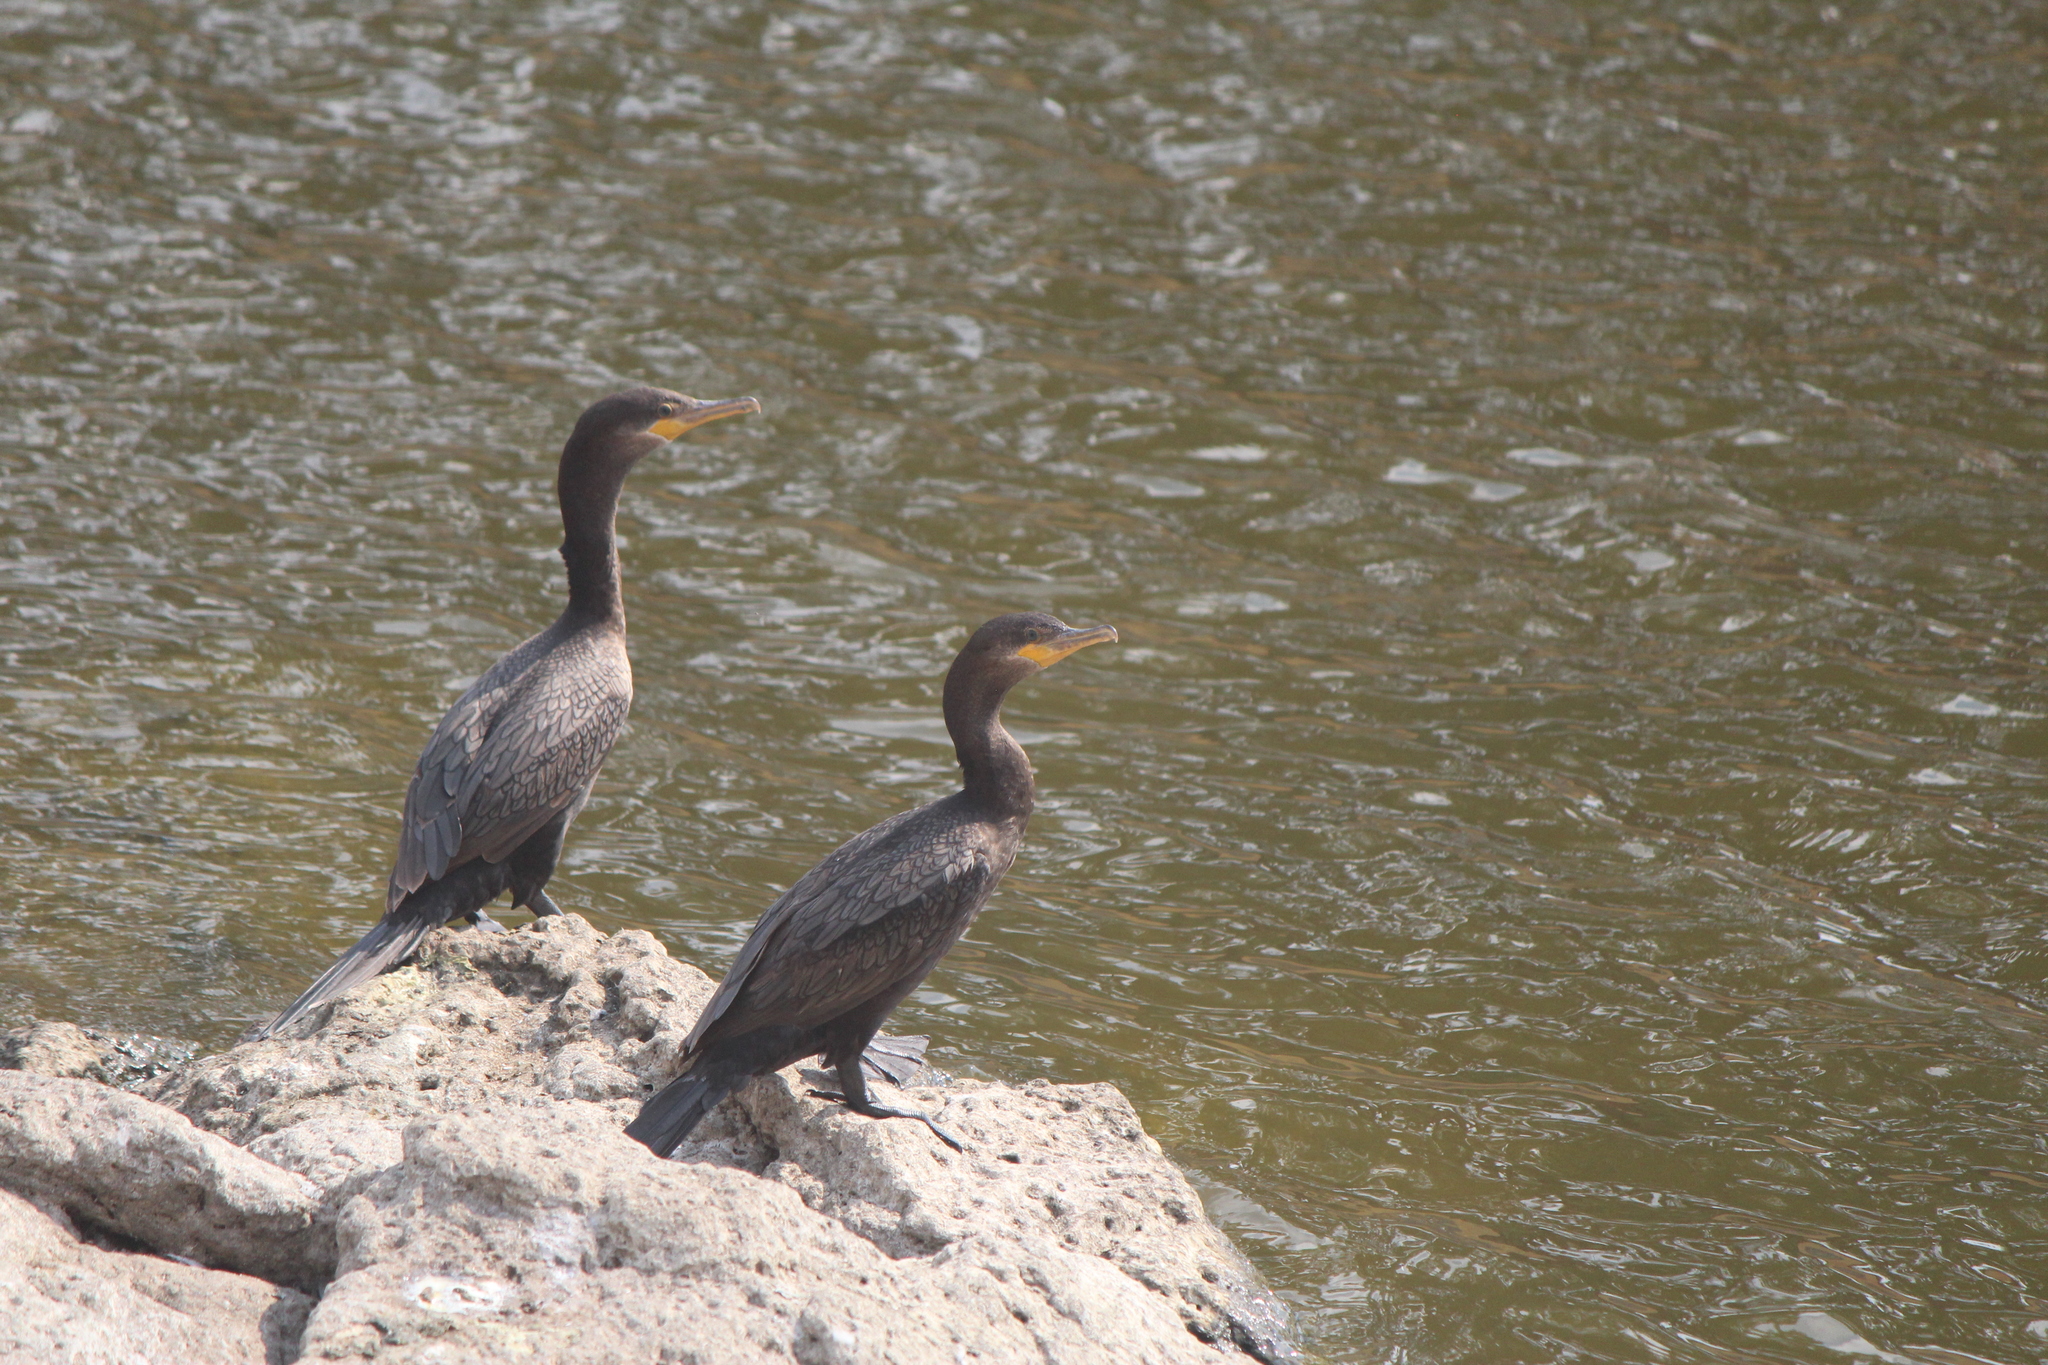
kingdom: Animalia
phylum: Chordata
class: Aves
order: Suliformes
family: Phalacrocoracidae
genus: Phalacrocorax
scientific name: Phalacrocorax brasilianus
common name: Neotropic cormorant
